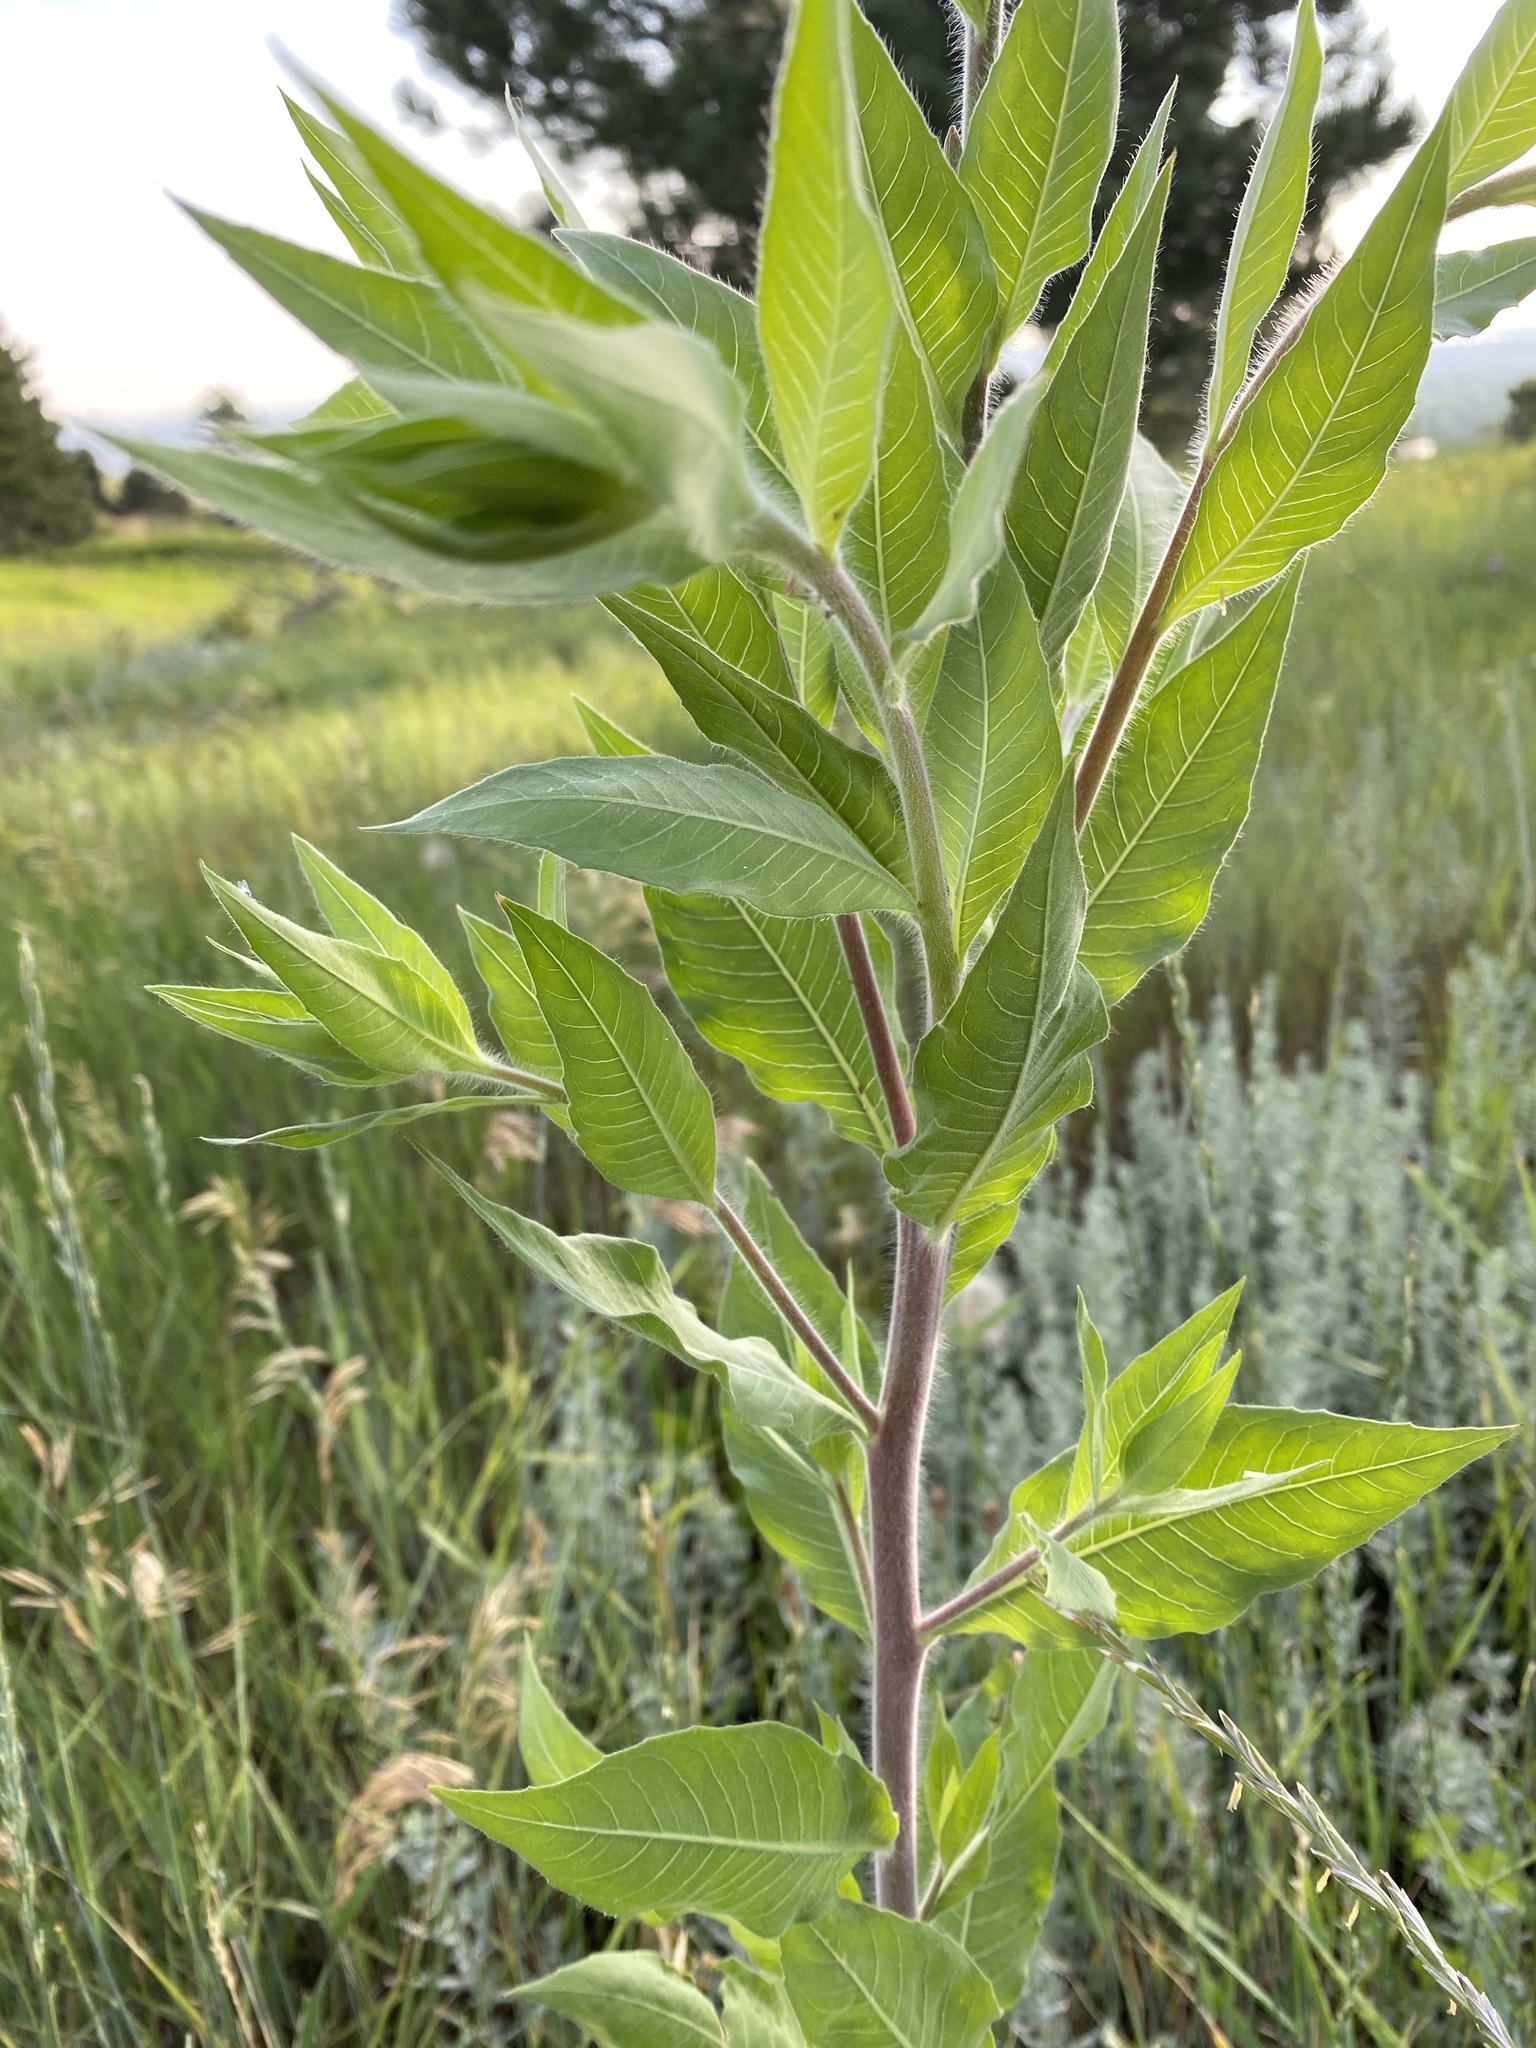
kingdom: Plantae
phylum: Tracheophyta
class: Magnoliopsida
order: Myrtales
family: Onagraceae
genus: Oenothera
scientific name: Oenothera curtiflora
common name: Velvetweed
